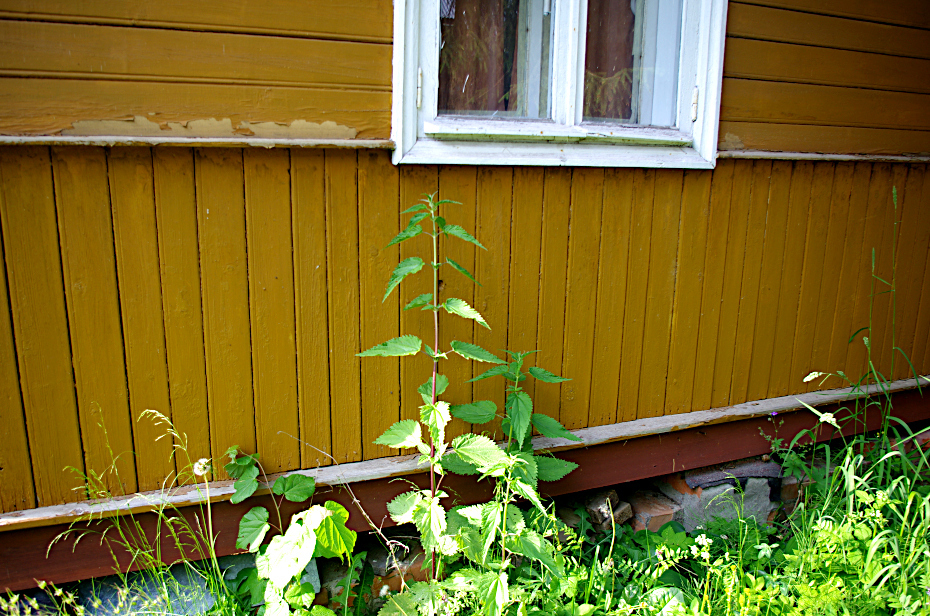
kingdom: Plantae
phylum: Tracheophyta
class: Magnoliopsida
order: Rosales
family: Urticaceae
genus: Urtica
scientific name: Urtica dioica
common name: Common nettle
